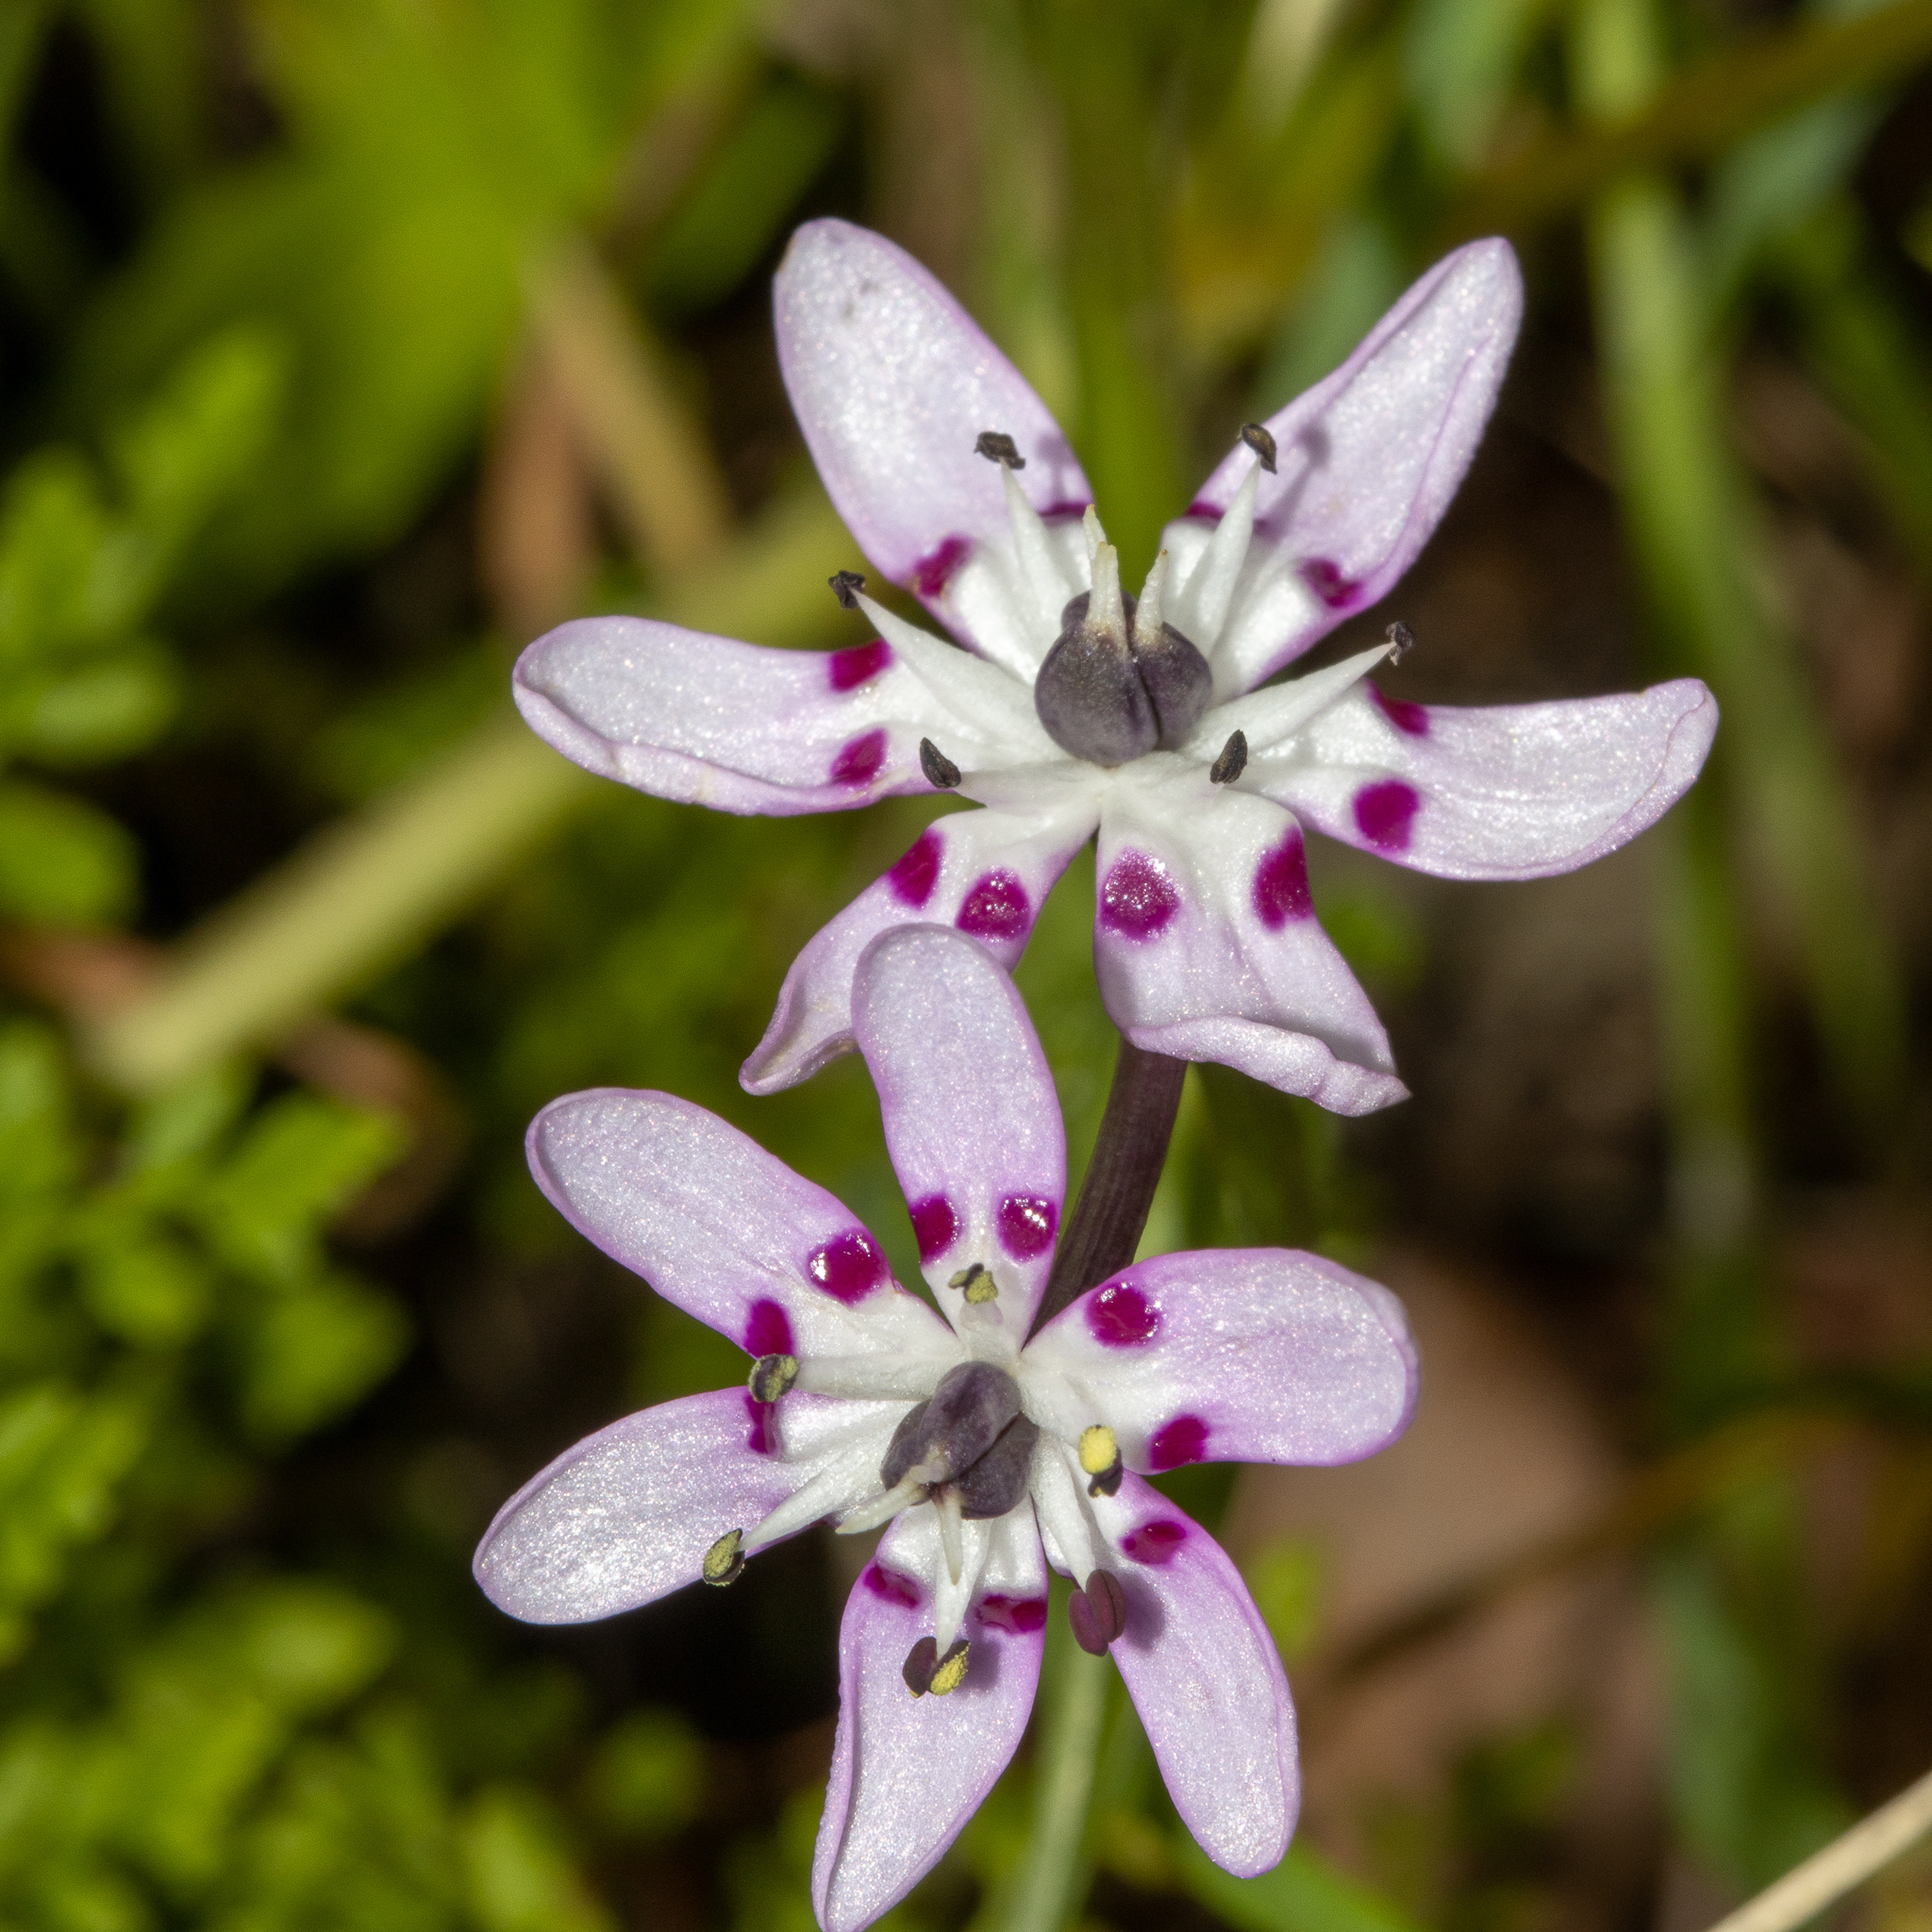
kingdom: Plantae
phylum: Tracheophyta
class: Liliopsida
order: Liliales
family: Colchicaceae
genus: Wurmbea
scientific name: Wurmbea biglandulosa
